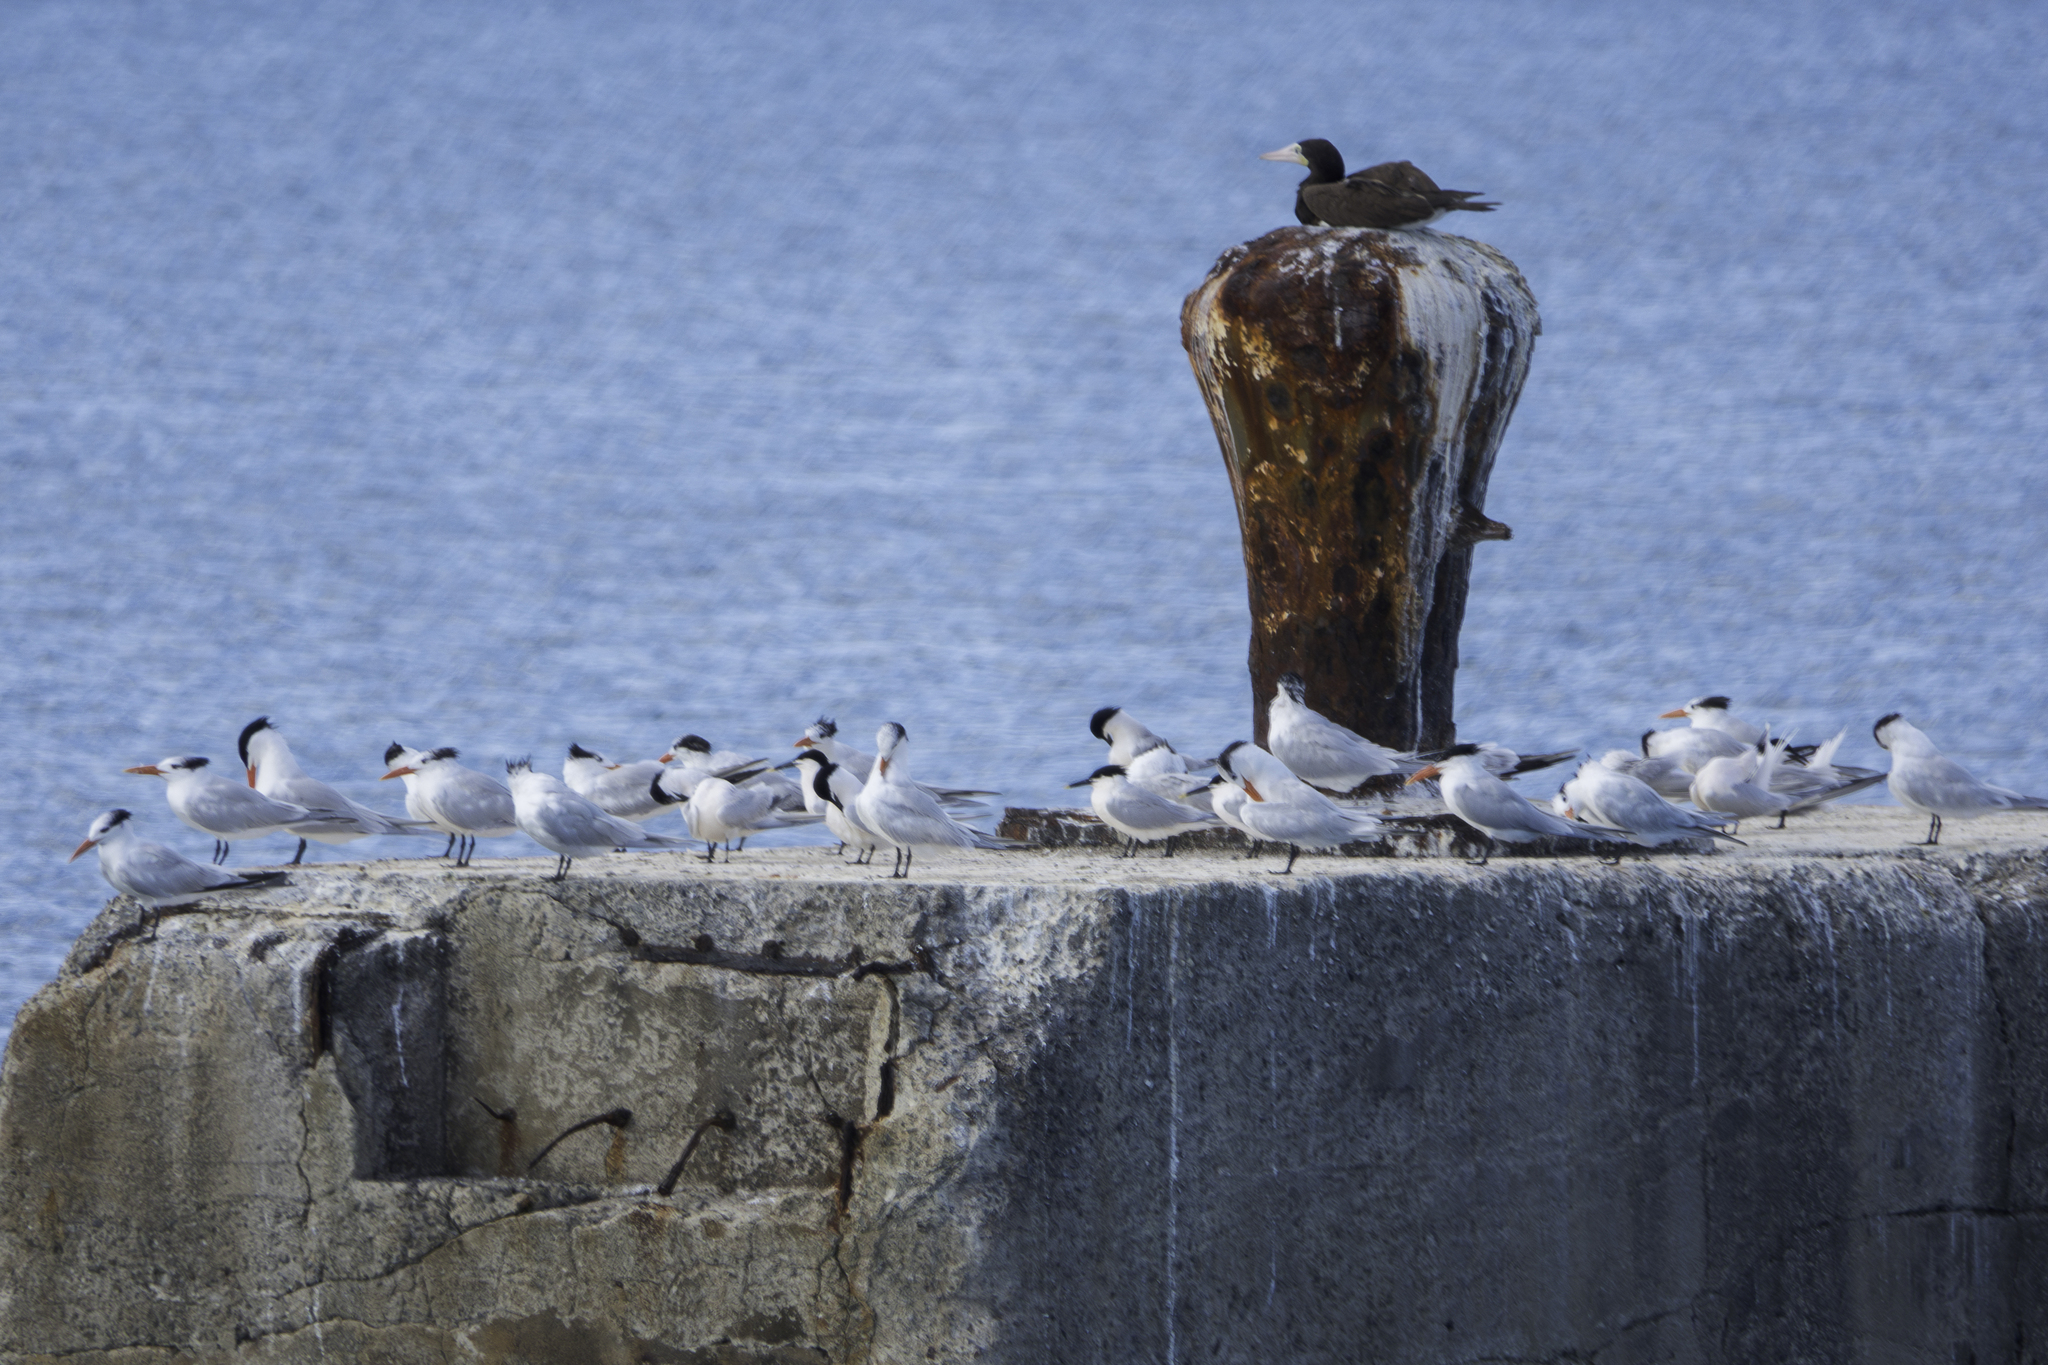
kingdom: Animalia
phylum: Chordata
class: Aves
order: Charadriiformes
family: Laridae
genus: Thalasseus
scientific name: Thalasseus sandvicensis
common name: Sandwich tern
